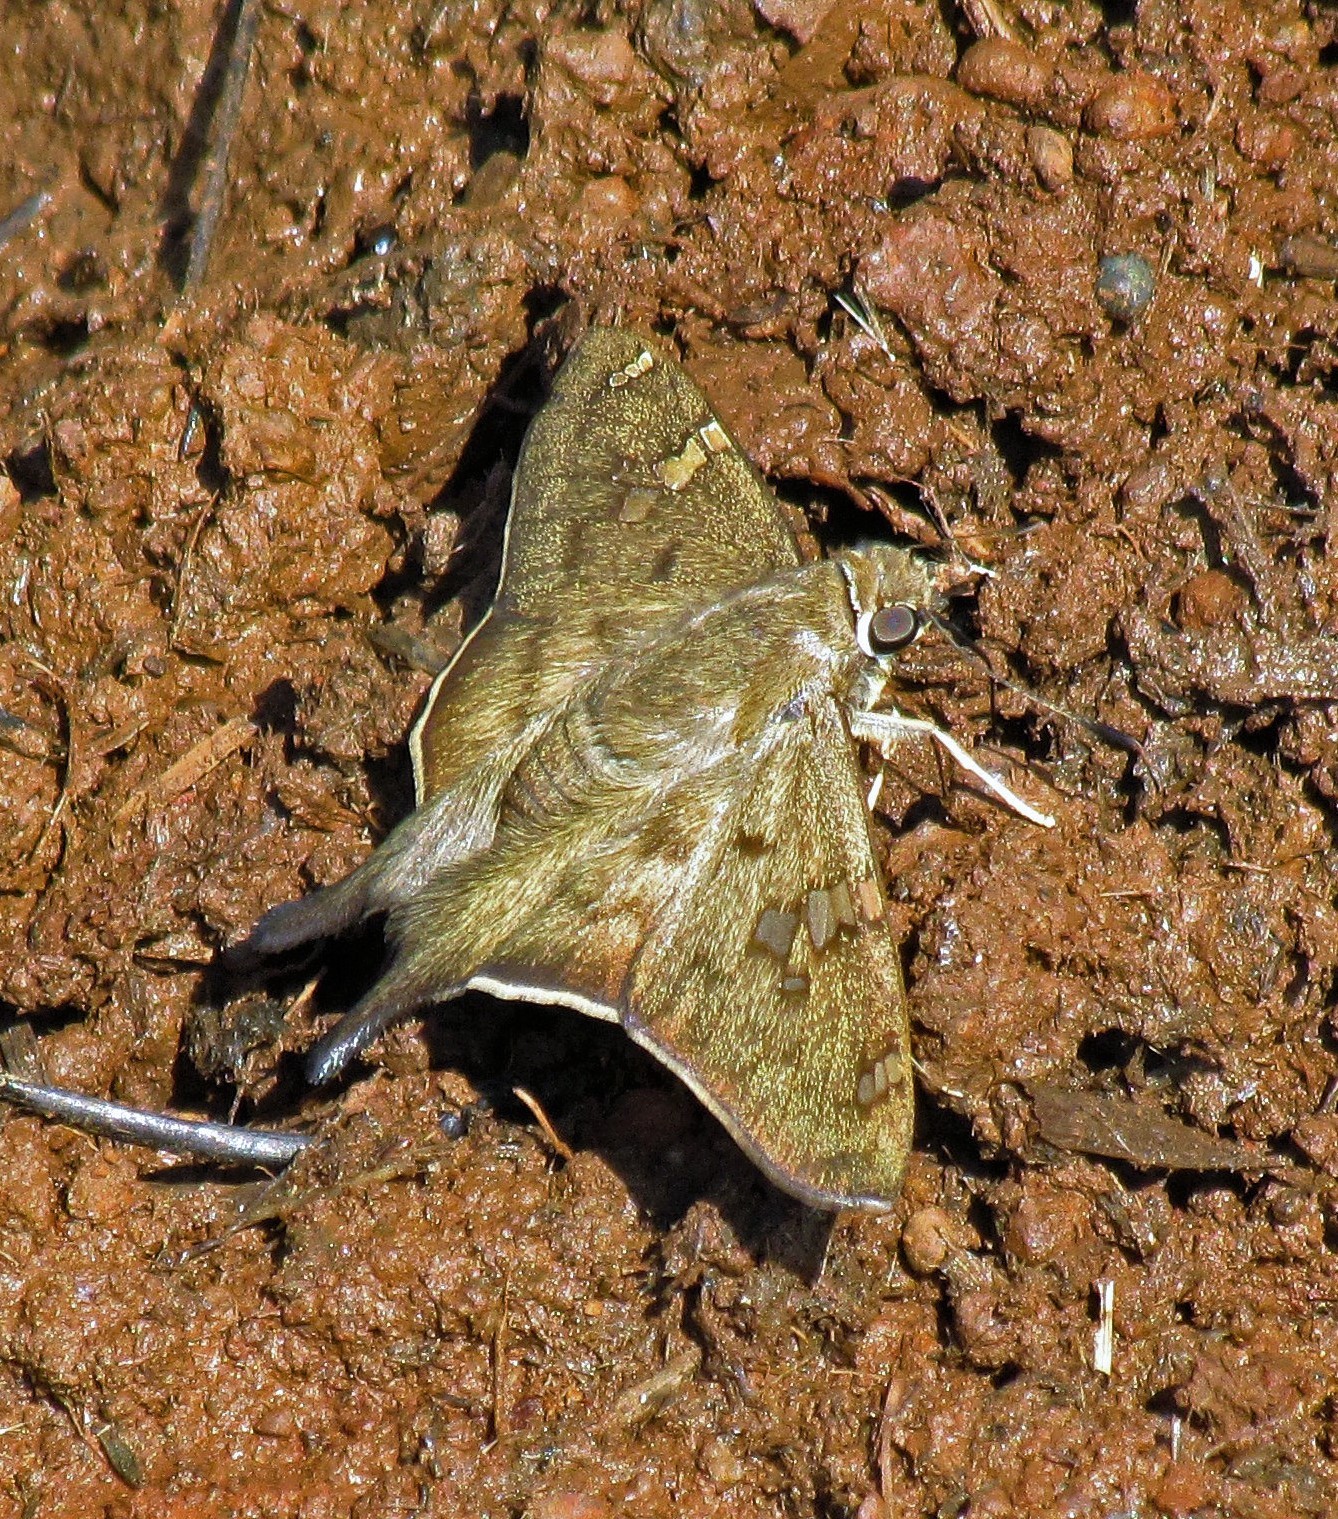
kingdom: Animalia
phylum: Arthropoda
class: Insecta
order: Lepidoptera
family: Hesperiidae
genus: Polythrix
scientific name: Polythrix octomaculata
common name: Eight-spotted longtail
